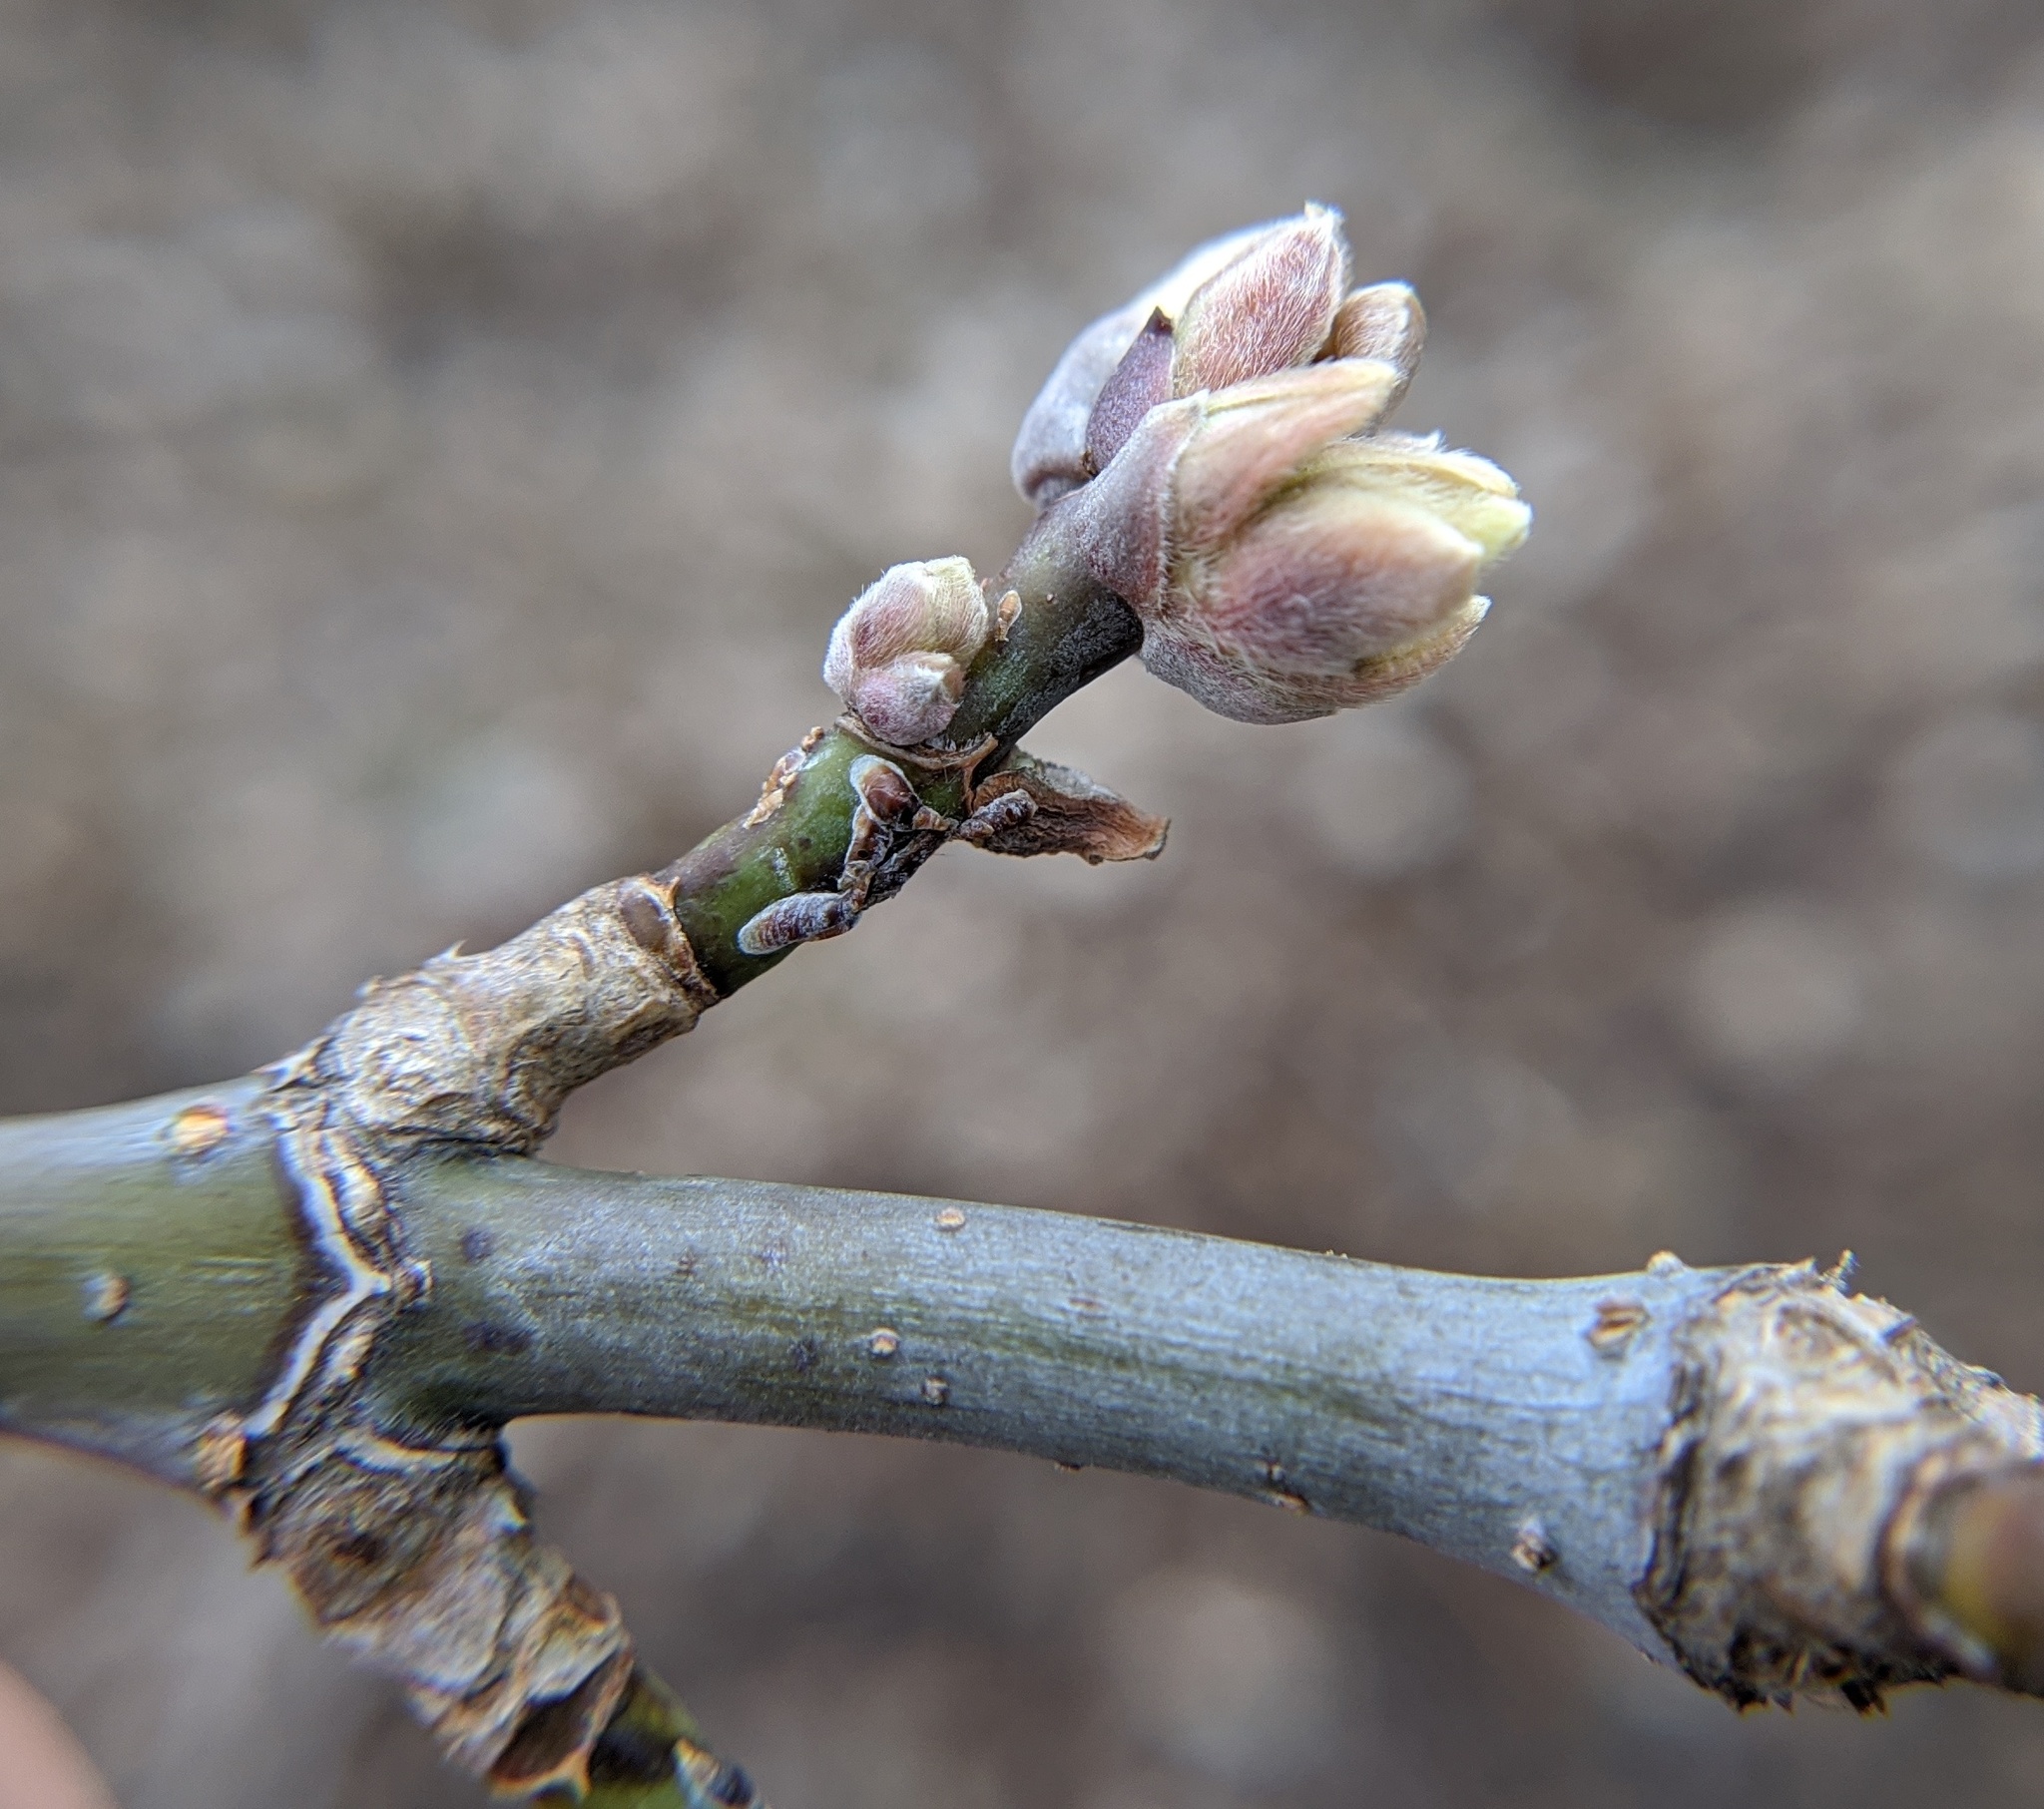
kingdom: Plantae
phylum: Tracheophyta
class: Magnoliopsida
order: Sapindales
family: Sapindaceae
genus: Acer
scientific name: Acer negundo
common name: Ashleaf maple
